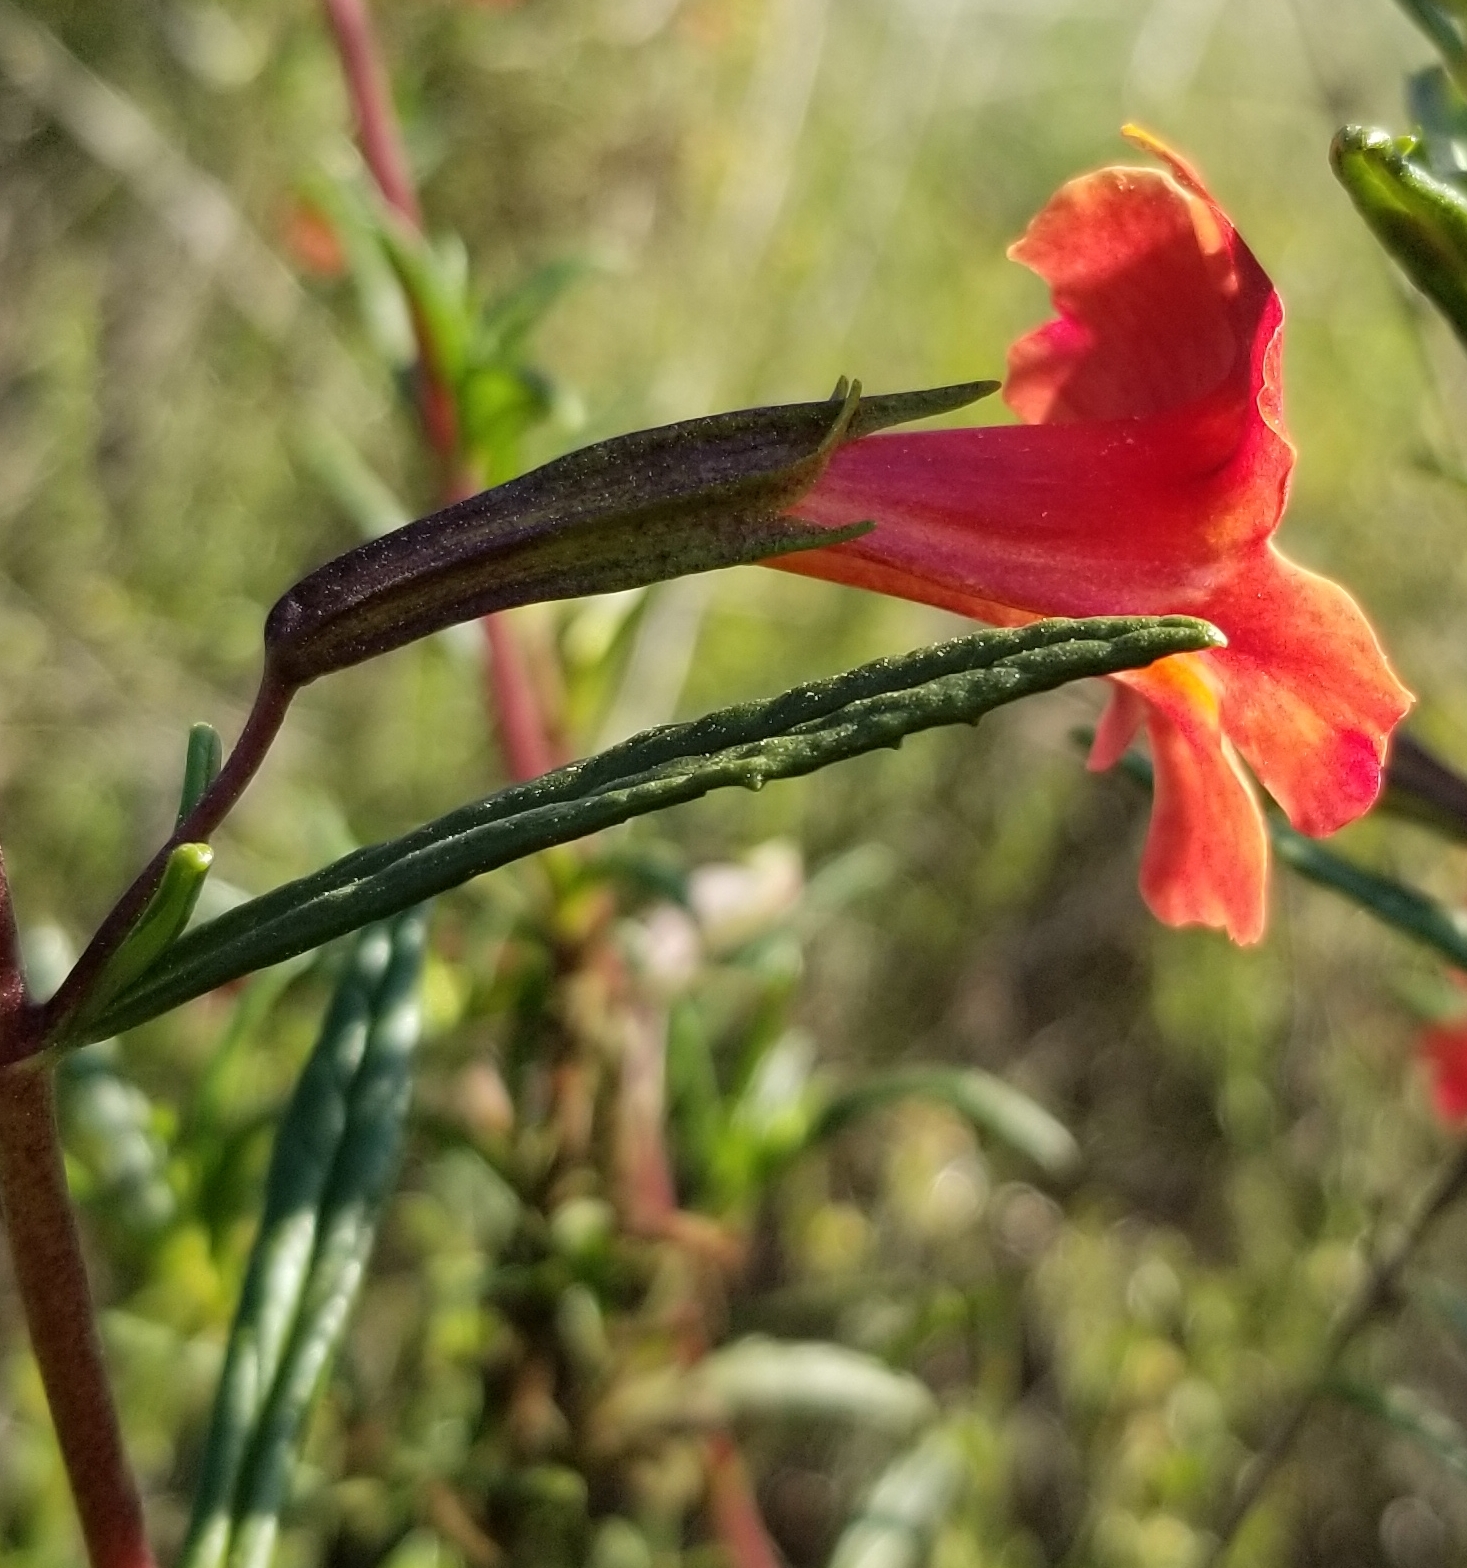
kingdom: Plantae
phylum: Tracheophyta
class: Magnoliopsida
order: Lamiales
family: Phrymaceae
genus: Diplacus
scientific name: Diplacus puniceus
